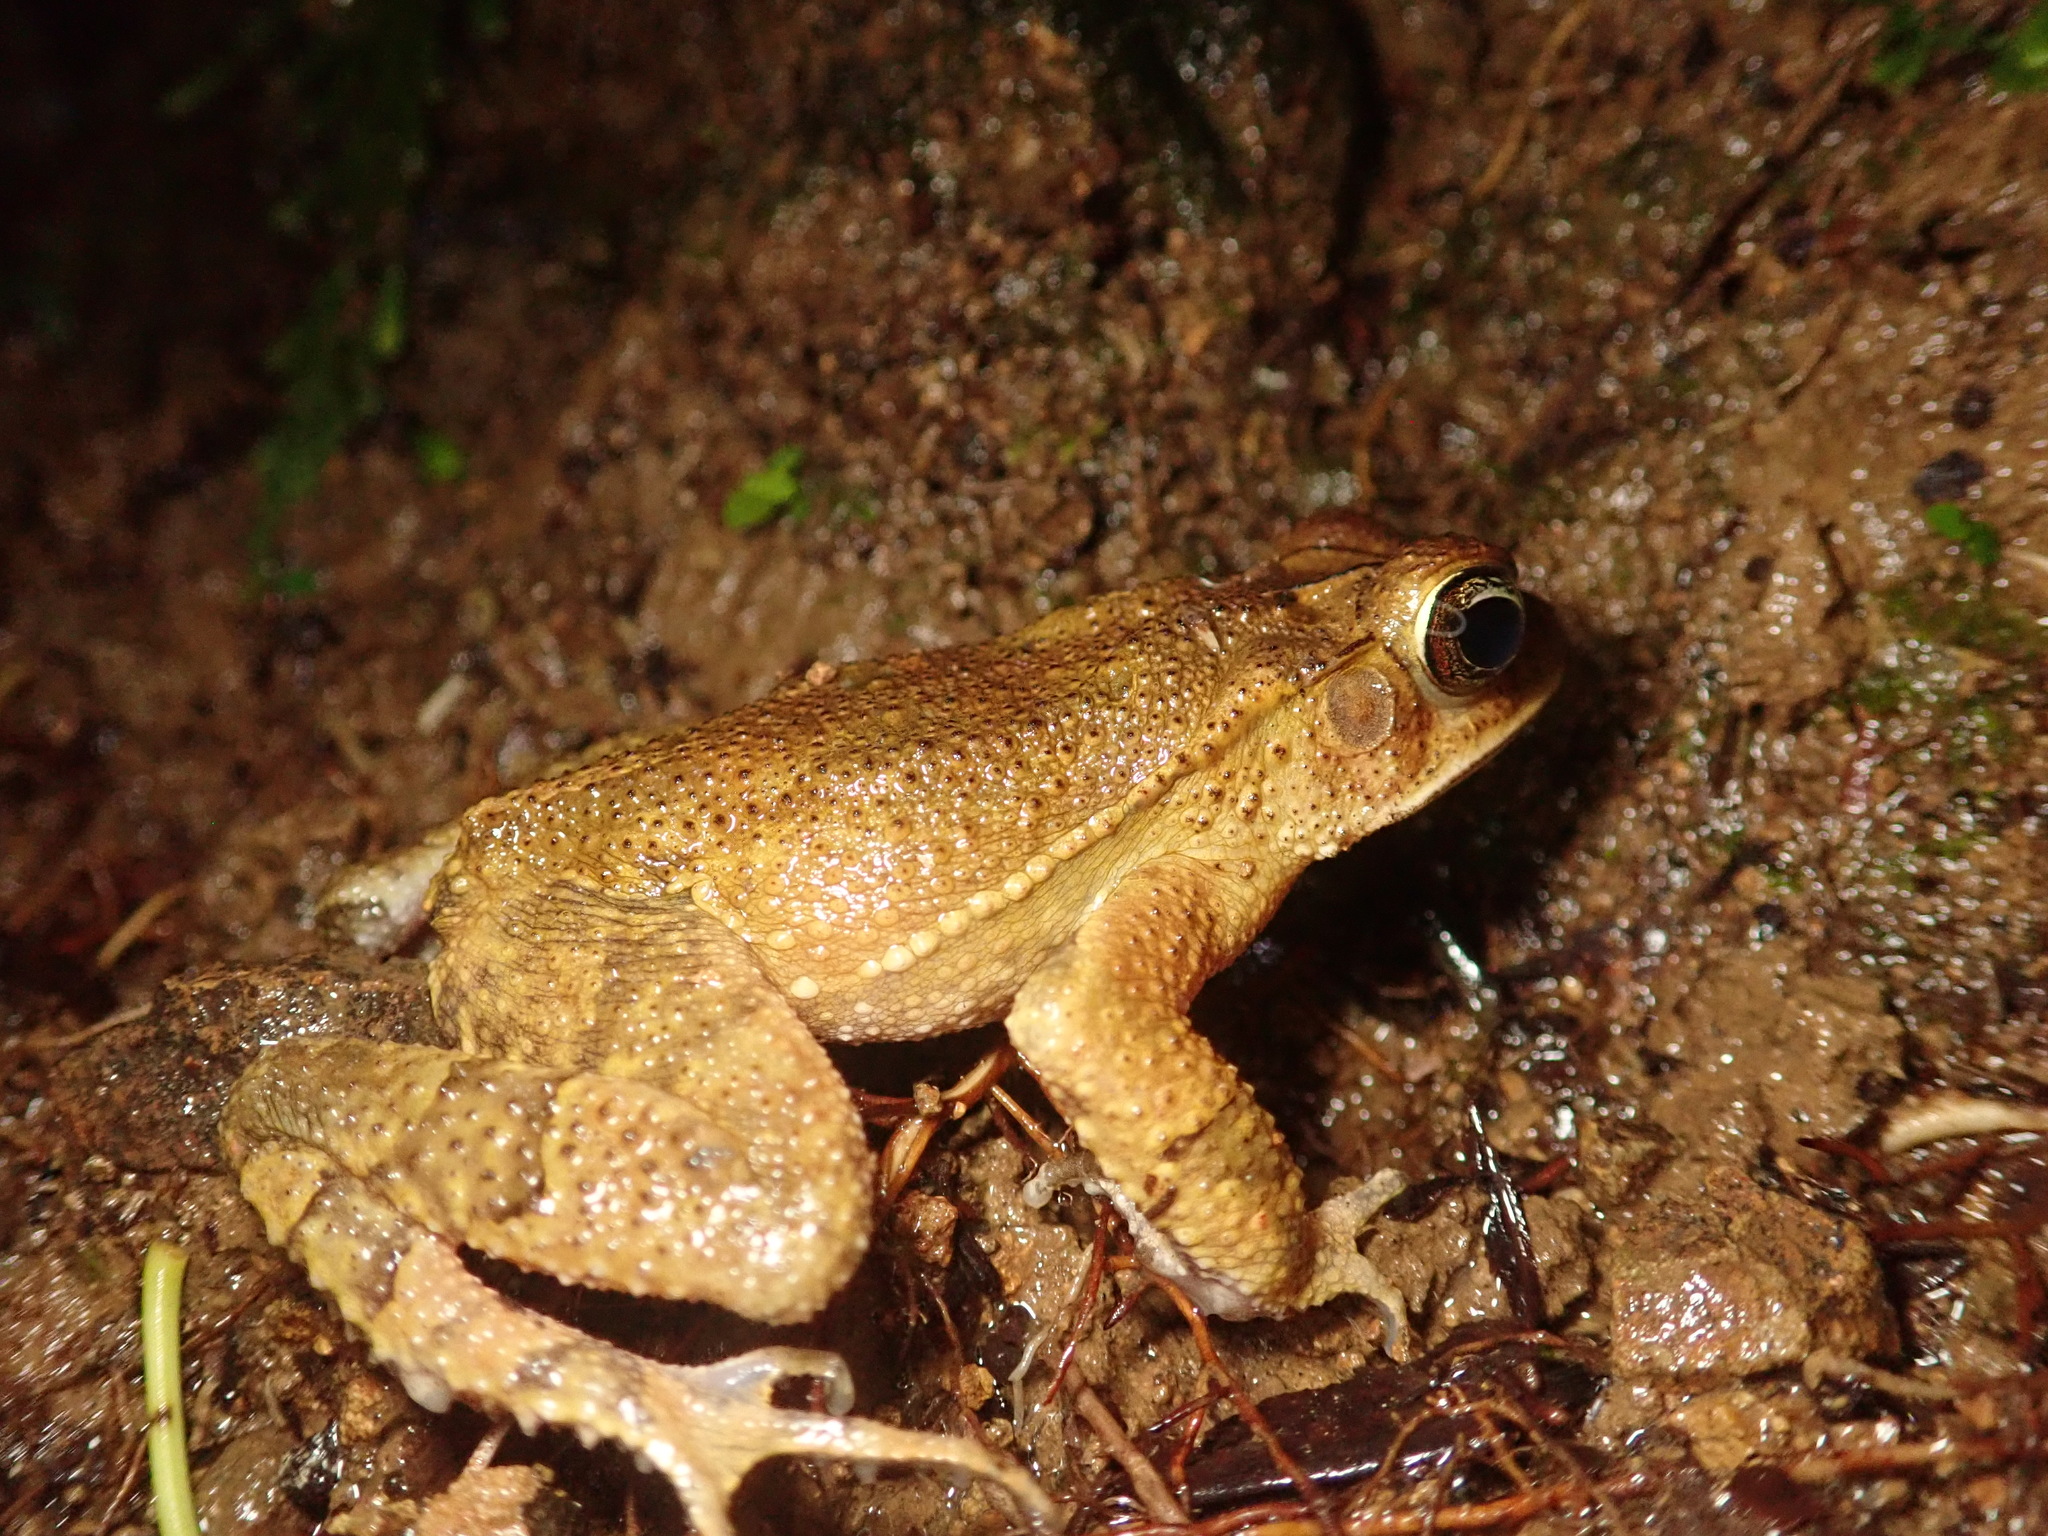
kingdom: Animalia
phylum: Chordata
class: Amphibia
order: Anura
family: Bufonidae
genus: Incilius
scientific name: Incilius aucoinae
